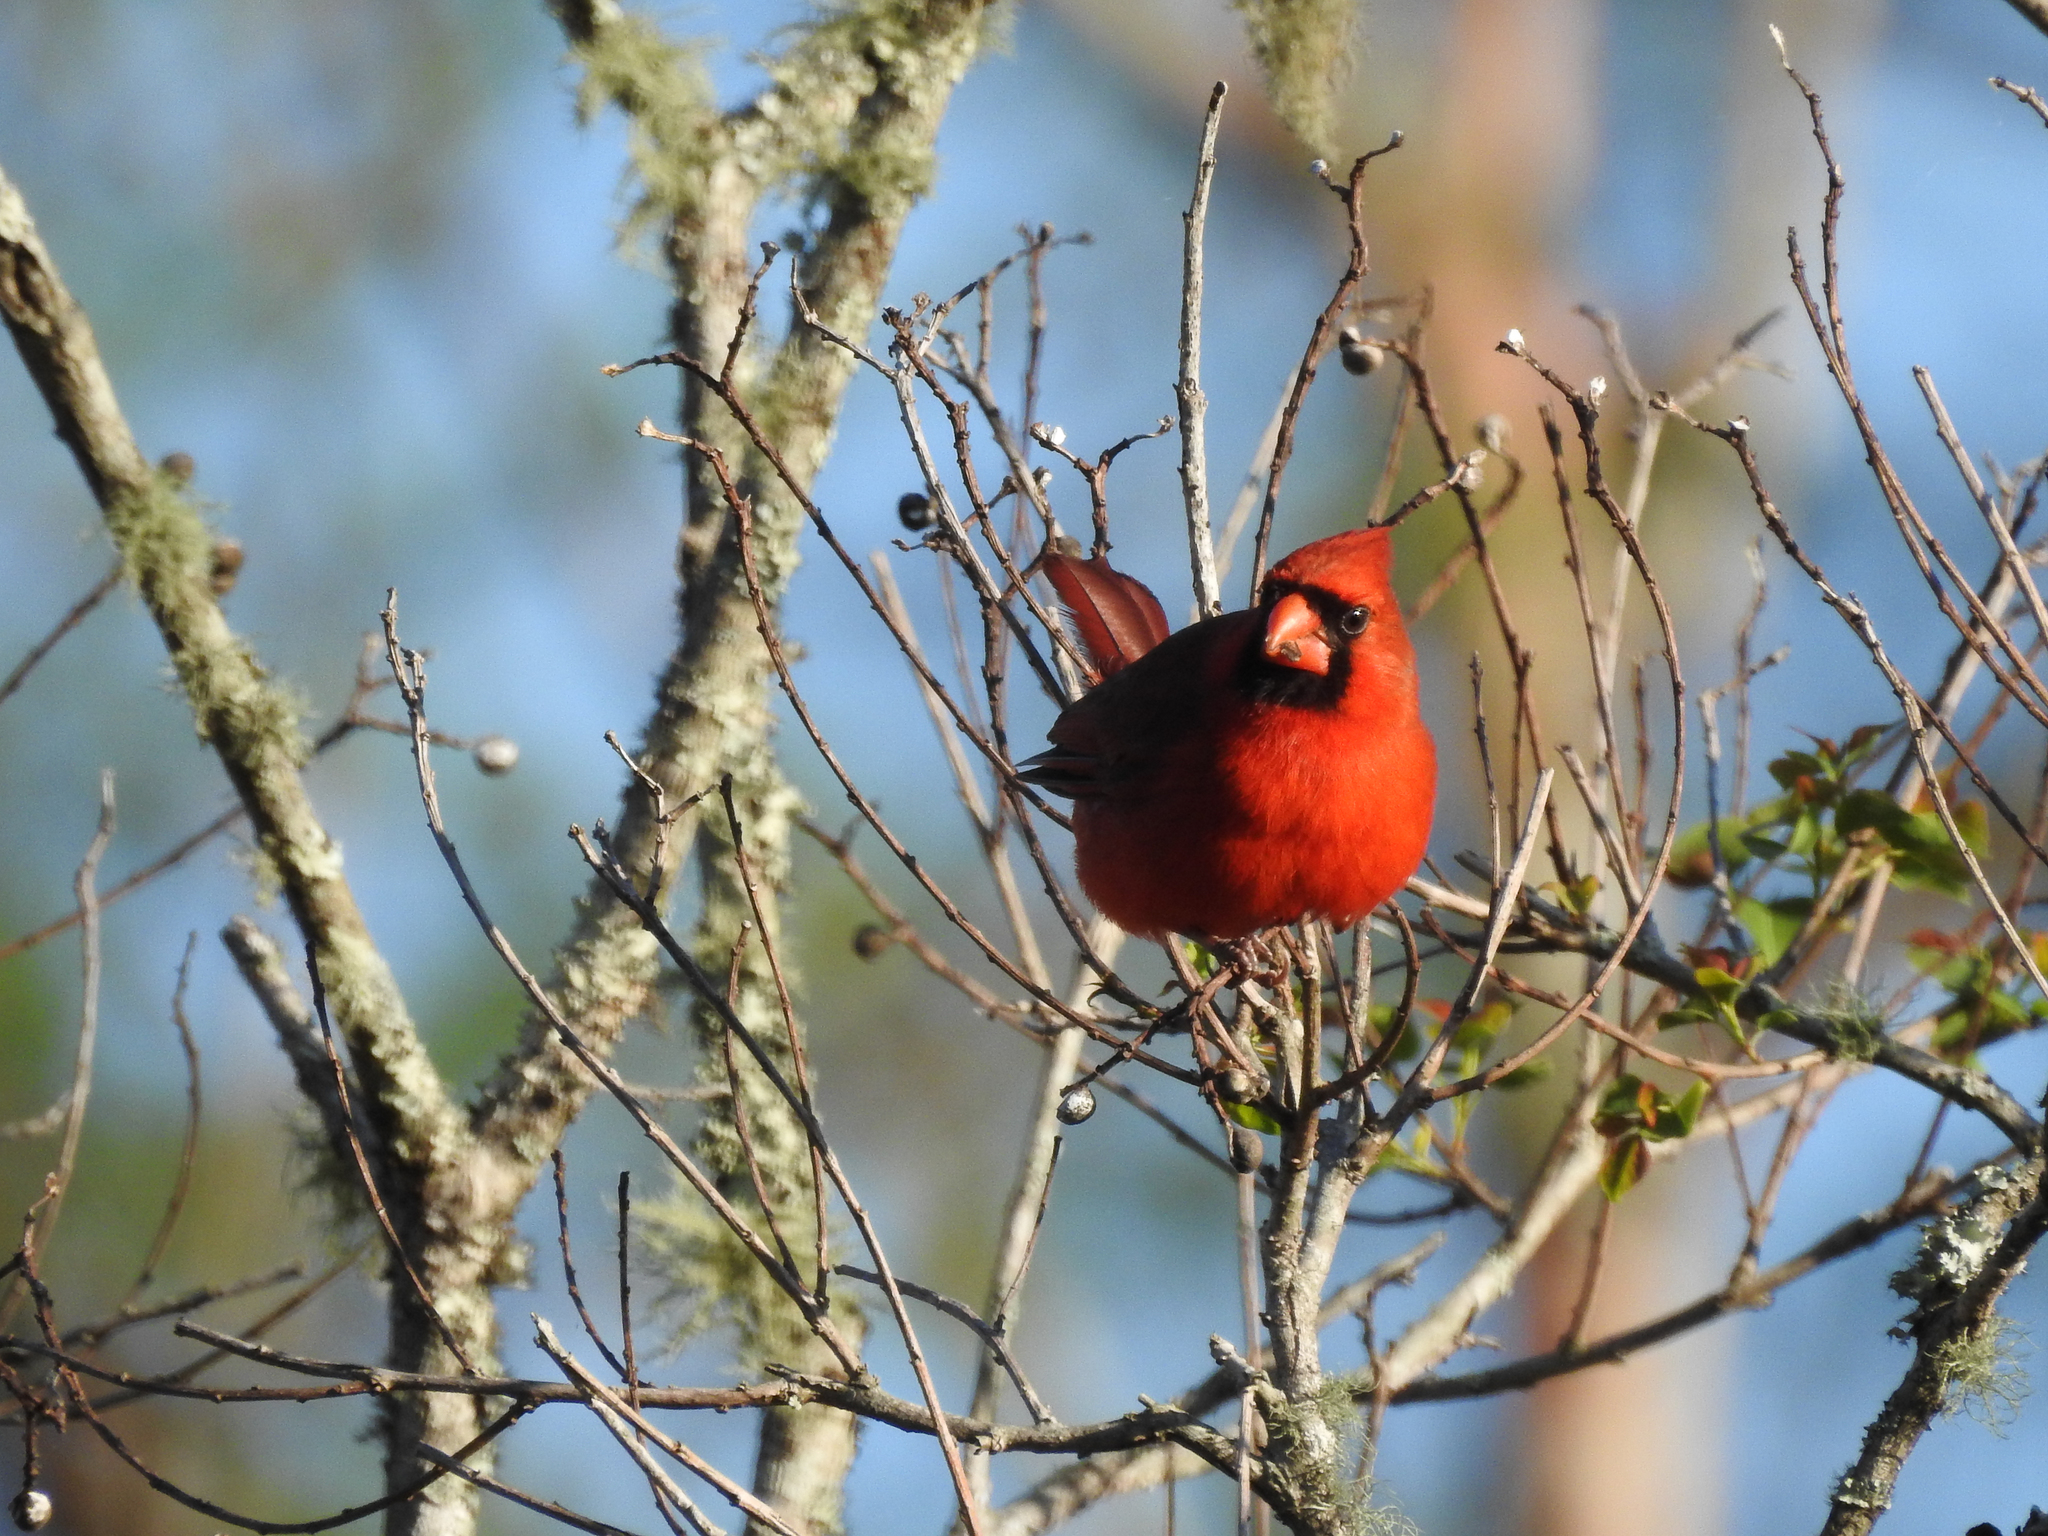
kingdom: Animalia
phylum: Chordata
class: Aves
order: Passeriformes
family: Cardinalidae
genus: Cardinalis
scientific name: Cardinalis cardinalis
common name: Northern cardinal
